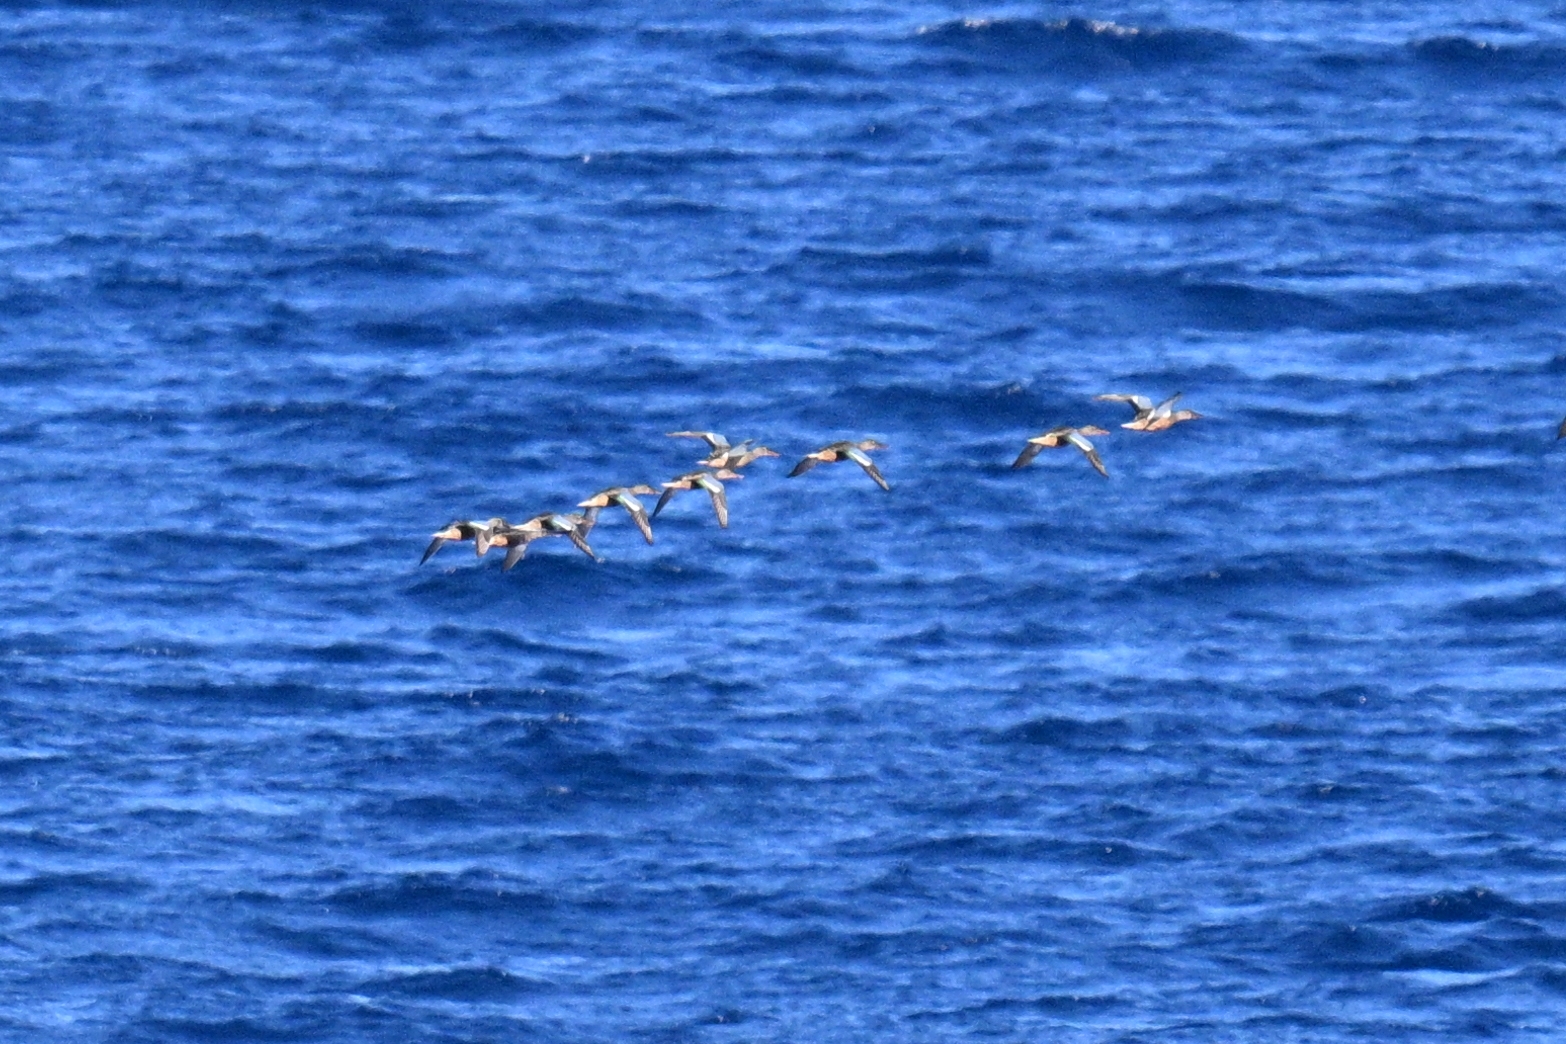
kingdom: Animalia
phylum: Chordata
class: Aves
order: Anseriformes
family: Anatidae
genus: Spatula
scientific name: Spatula clypeata
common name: Northern shoveler
